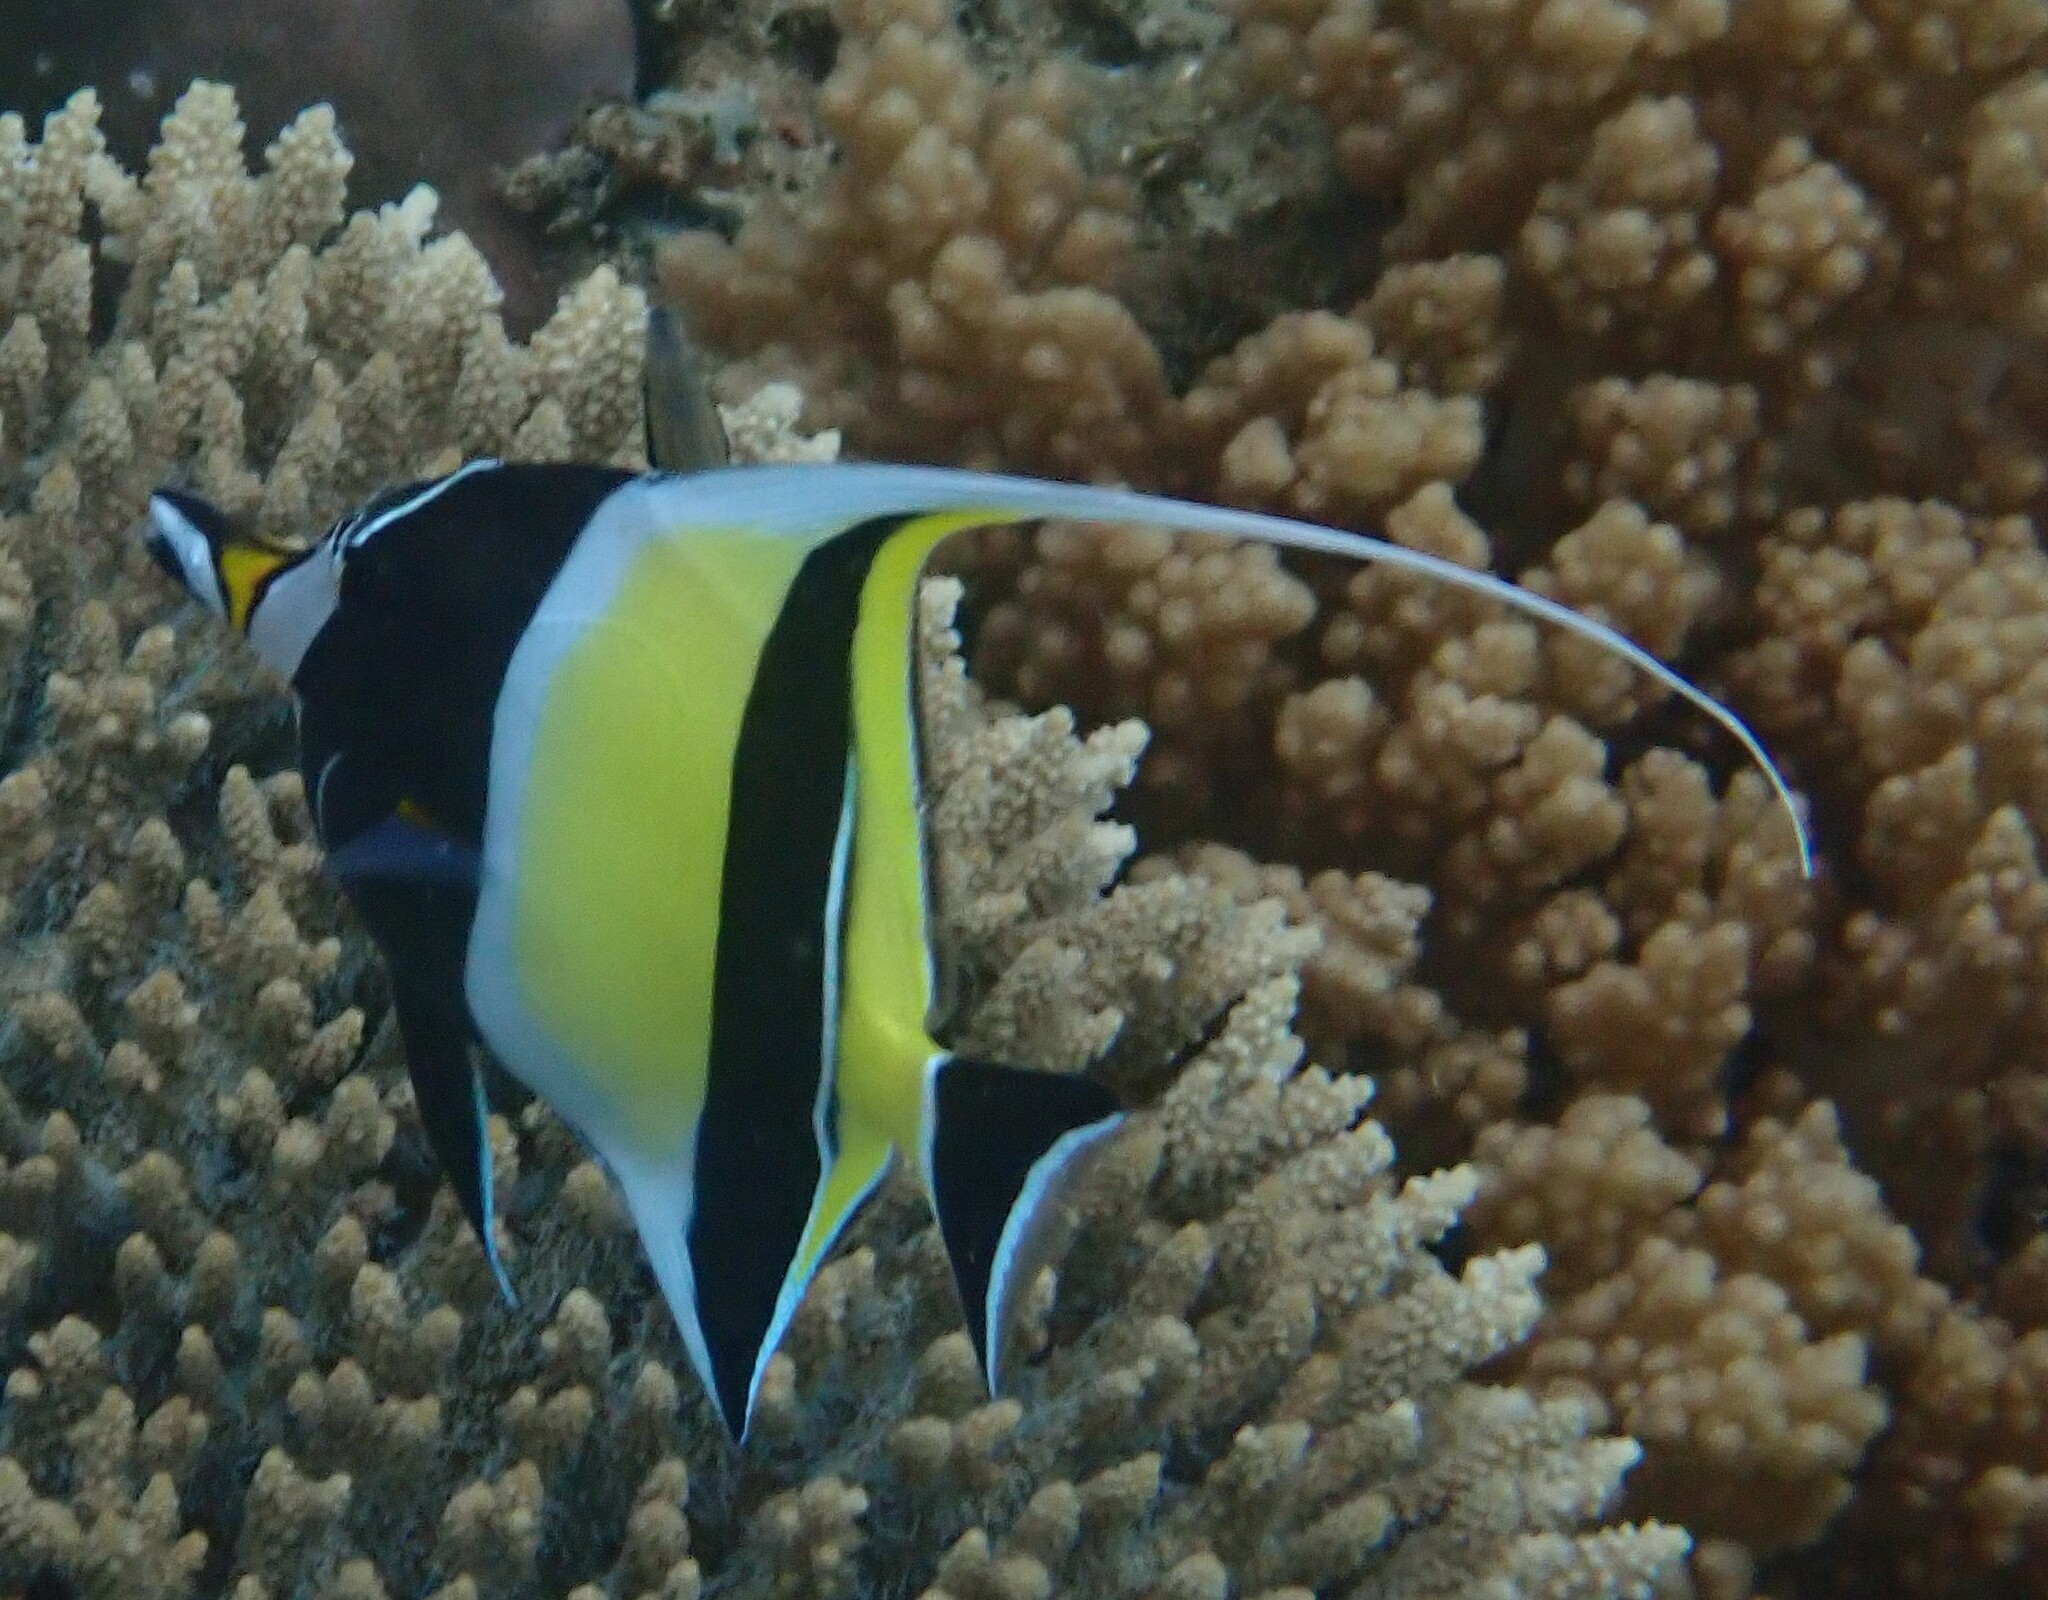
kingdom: Animalia
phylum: Chordata
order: Perciformes
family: Zanclidae
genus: Zanclus
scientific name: Zanclus cornutus
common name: Moorish idol
